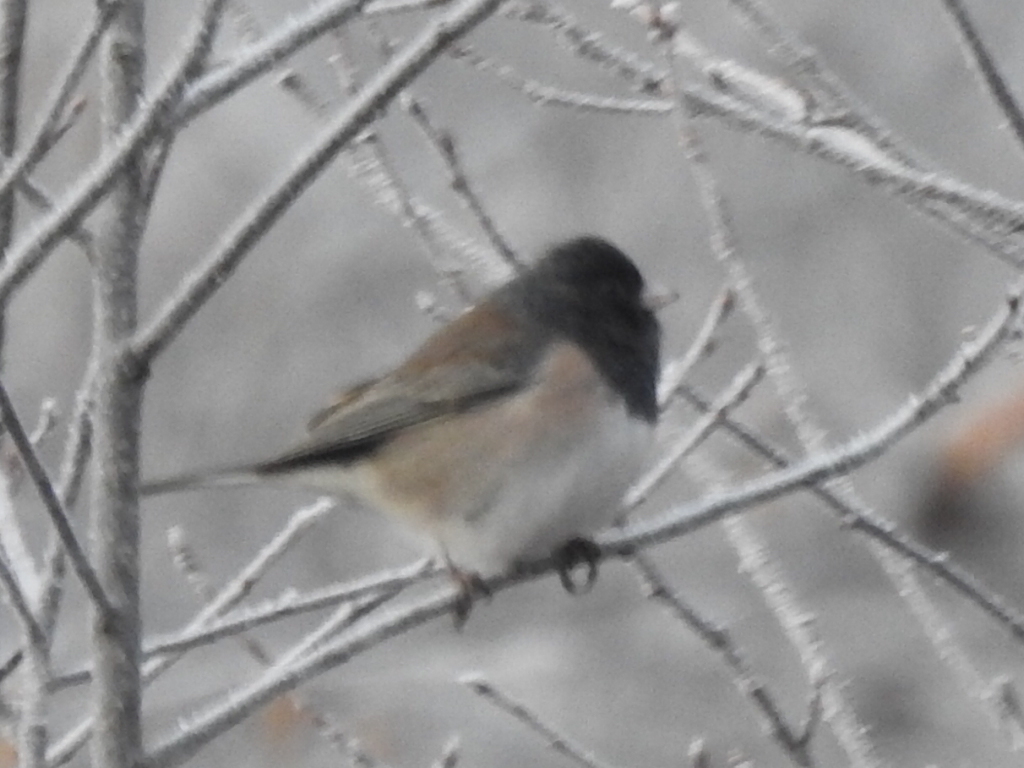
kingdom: Animalia
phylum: Chordata
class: Aves
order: Passeriformes
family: Passerellidae
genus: Junco
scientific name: Junco hyemalis
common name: Dark-eyed junco
